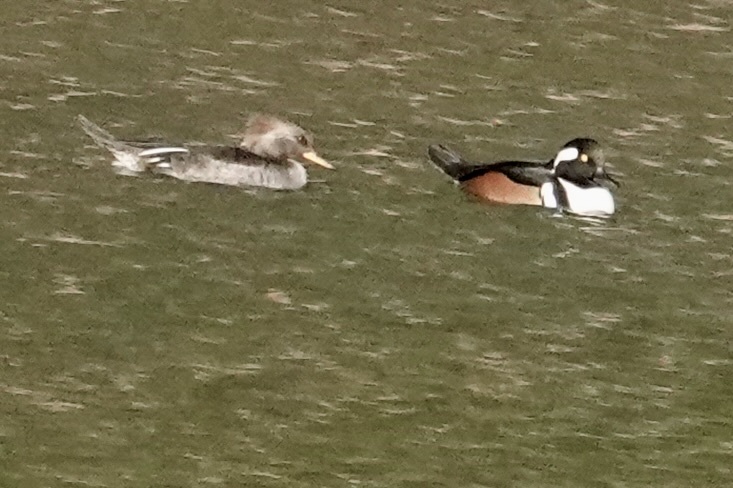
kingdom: Animalia
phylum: Chordata
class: Aves
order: Anseriformes
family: Anatidae
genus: Lophodytes
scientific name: Lophodytes cucullatus
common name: Hooded merganser
